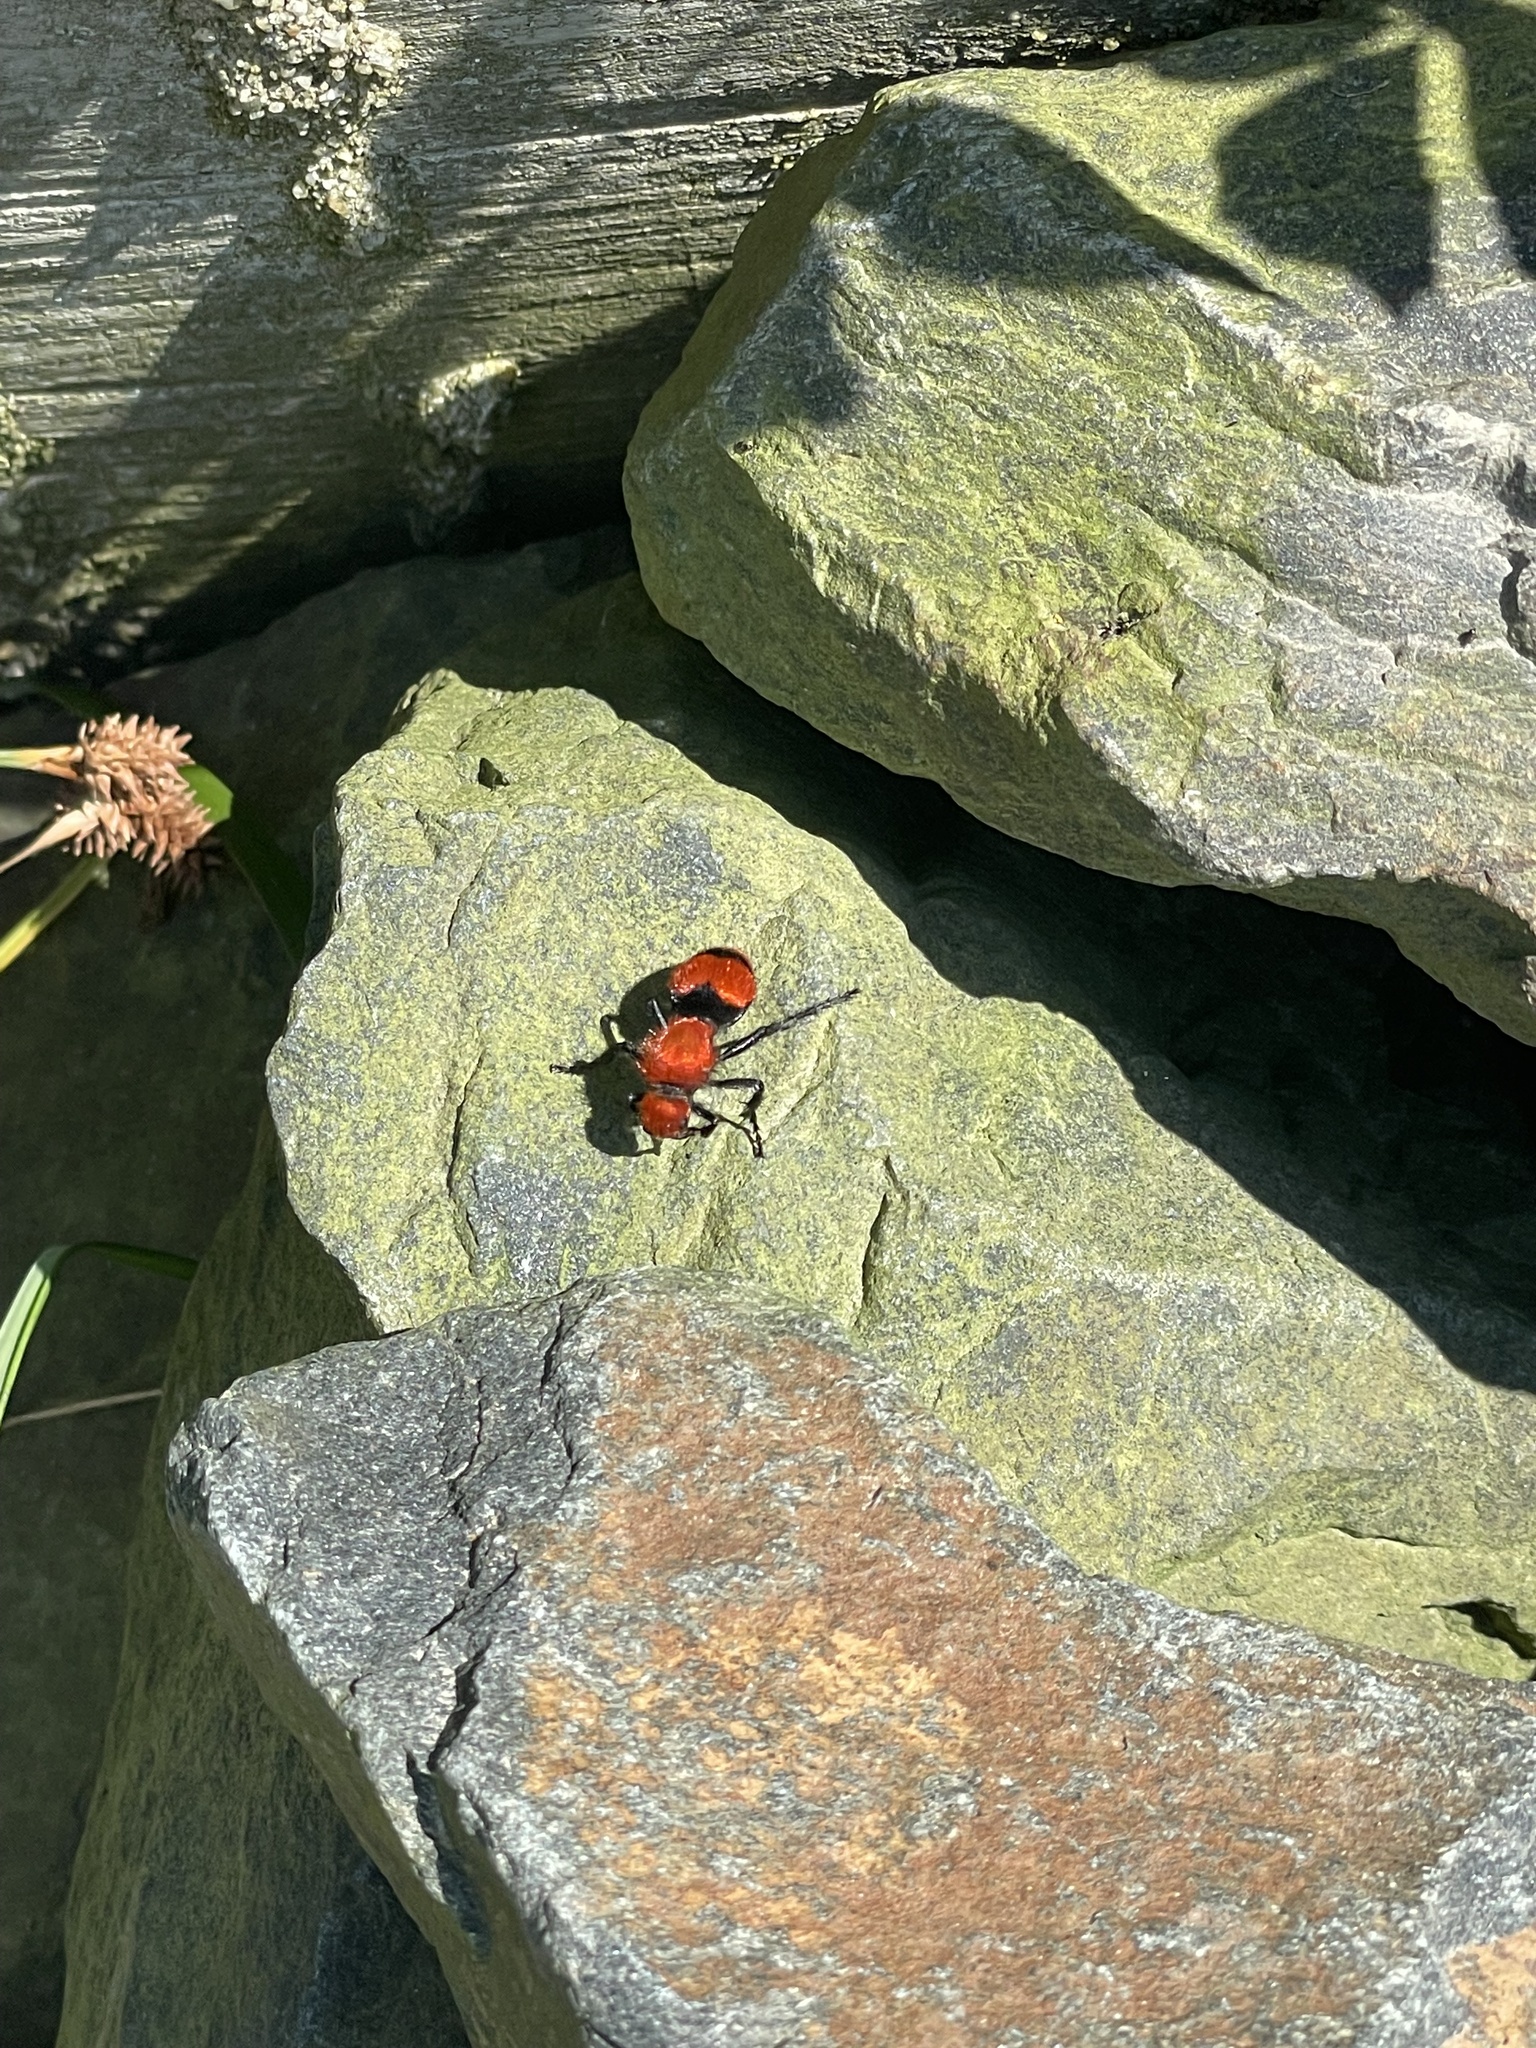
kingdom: Animalia
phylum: Arthropoda
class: Insecta
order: Hymenoptera
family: Mutillidae
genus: Dasymutilla
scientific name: Dasymutilla occidentalis
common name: Common eastern velvet ant
